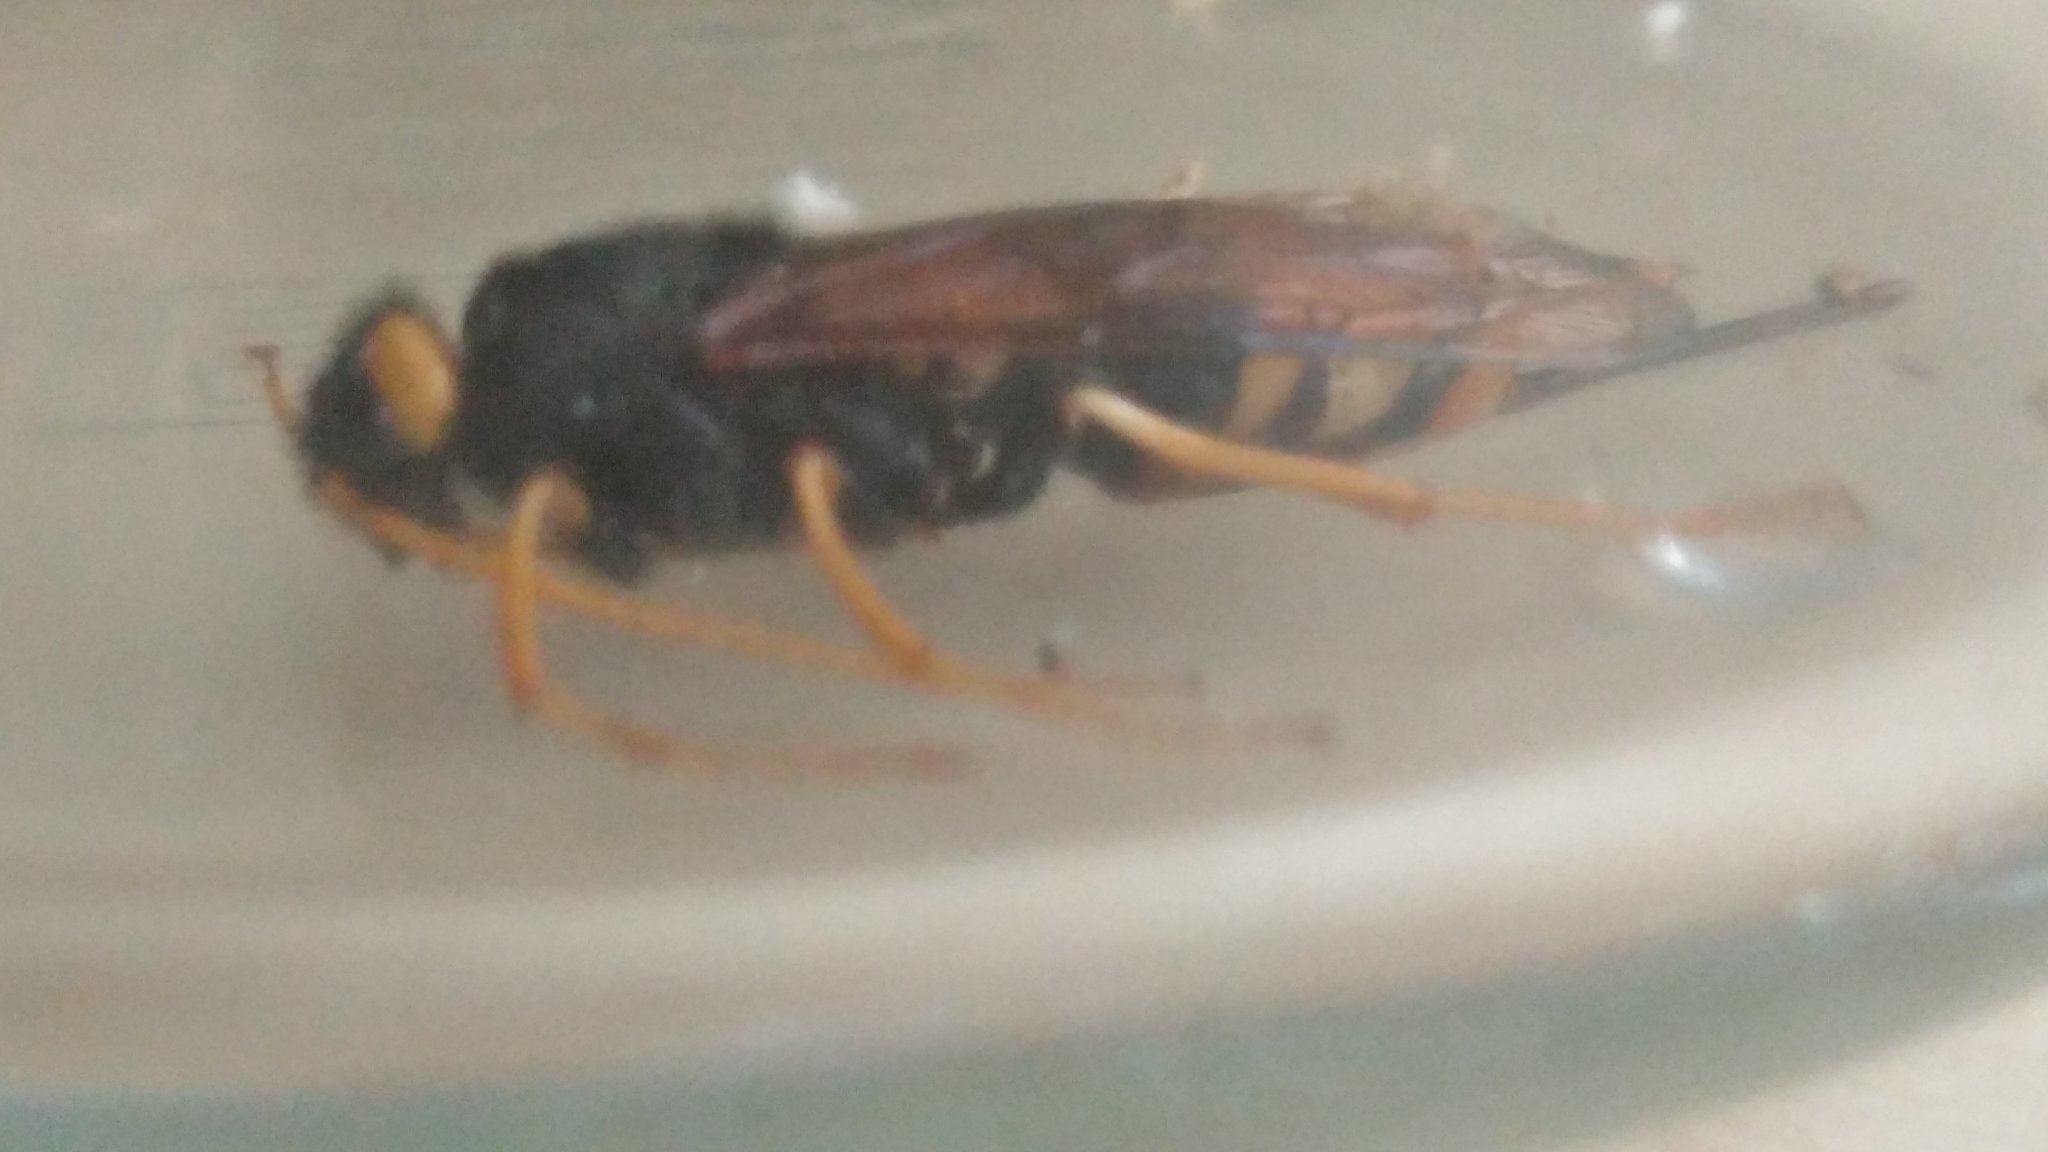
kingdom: Animalia
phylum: Arthropoda
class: Insecta
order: Hymenoptera
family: Siricidae
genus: Urocerus
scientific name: Urocerus gigas
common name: Giant woodwasp
